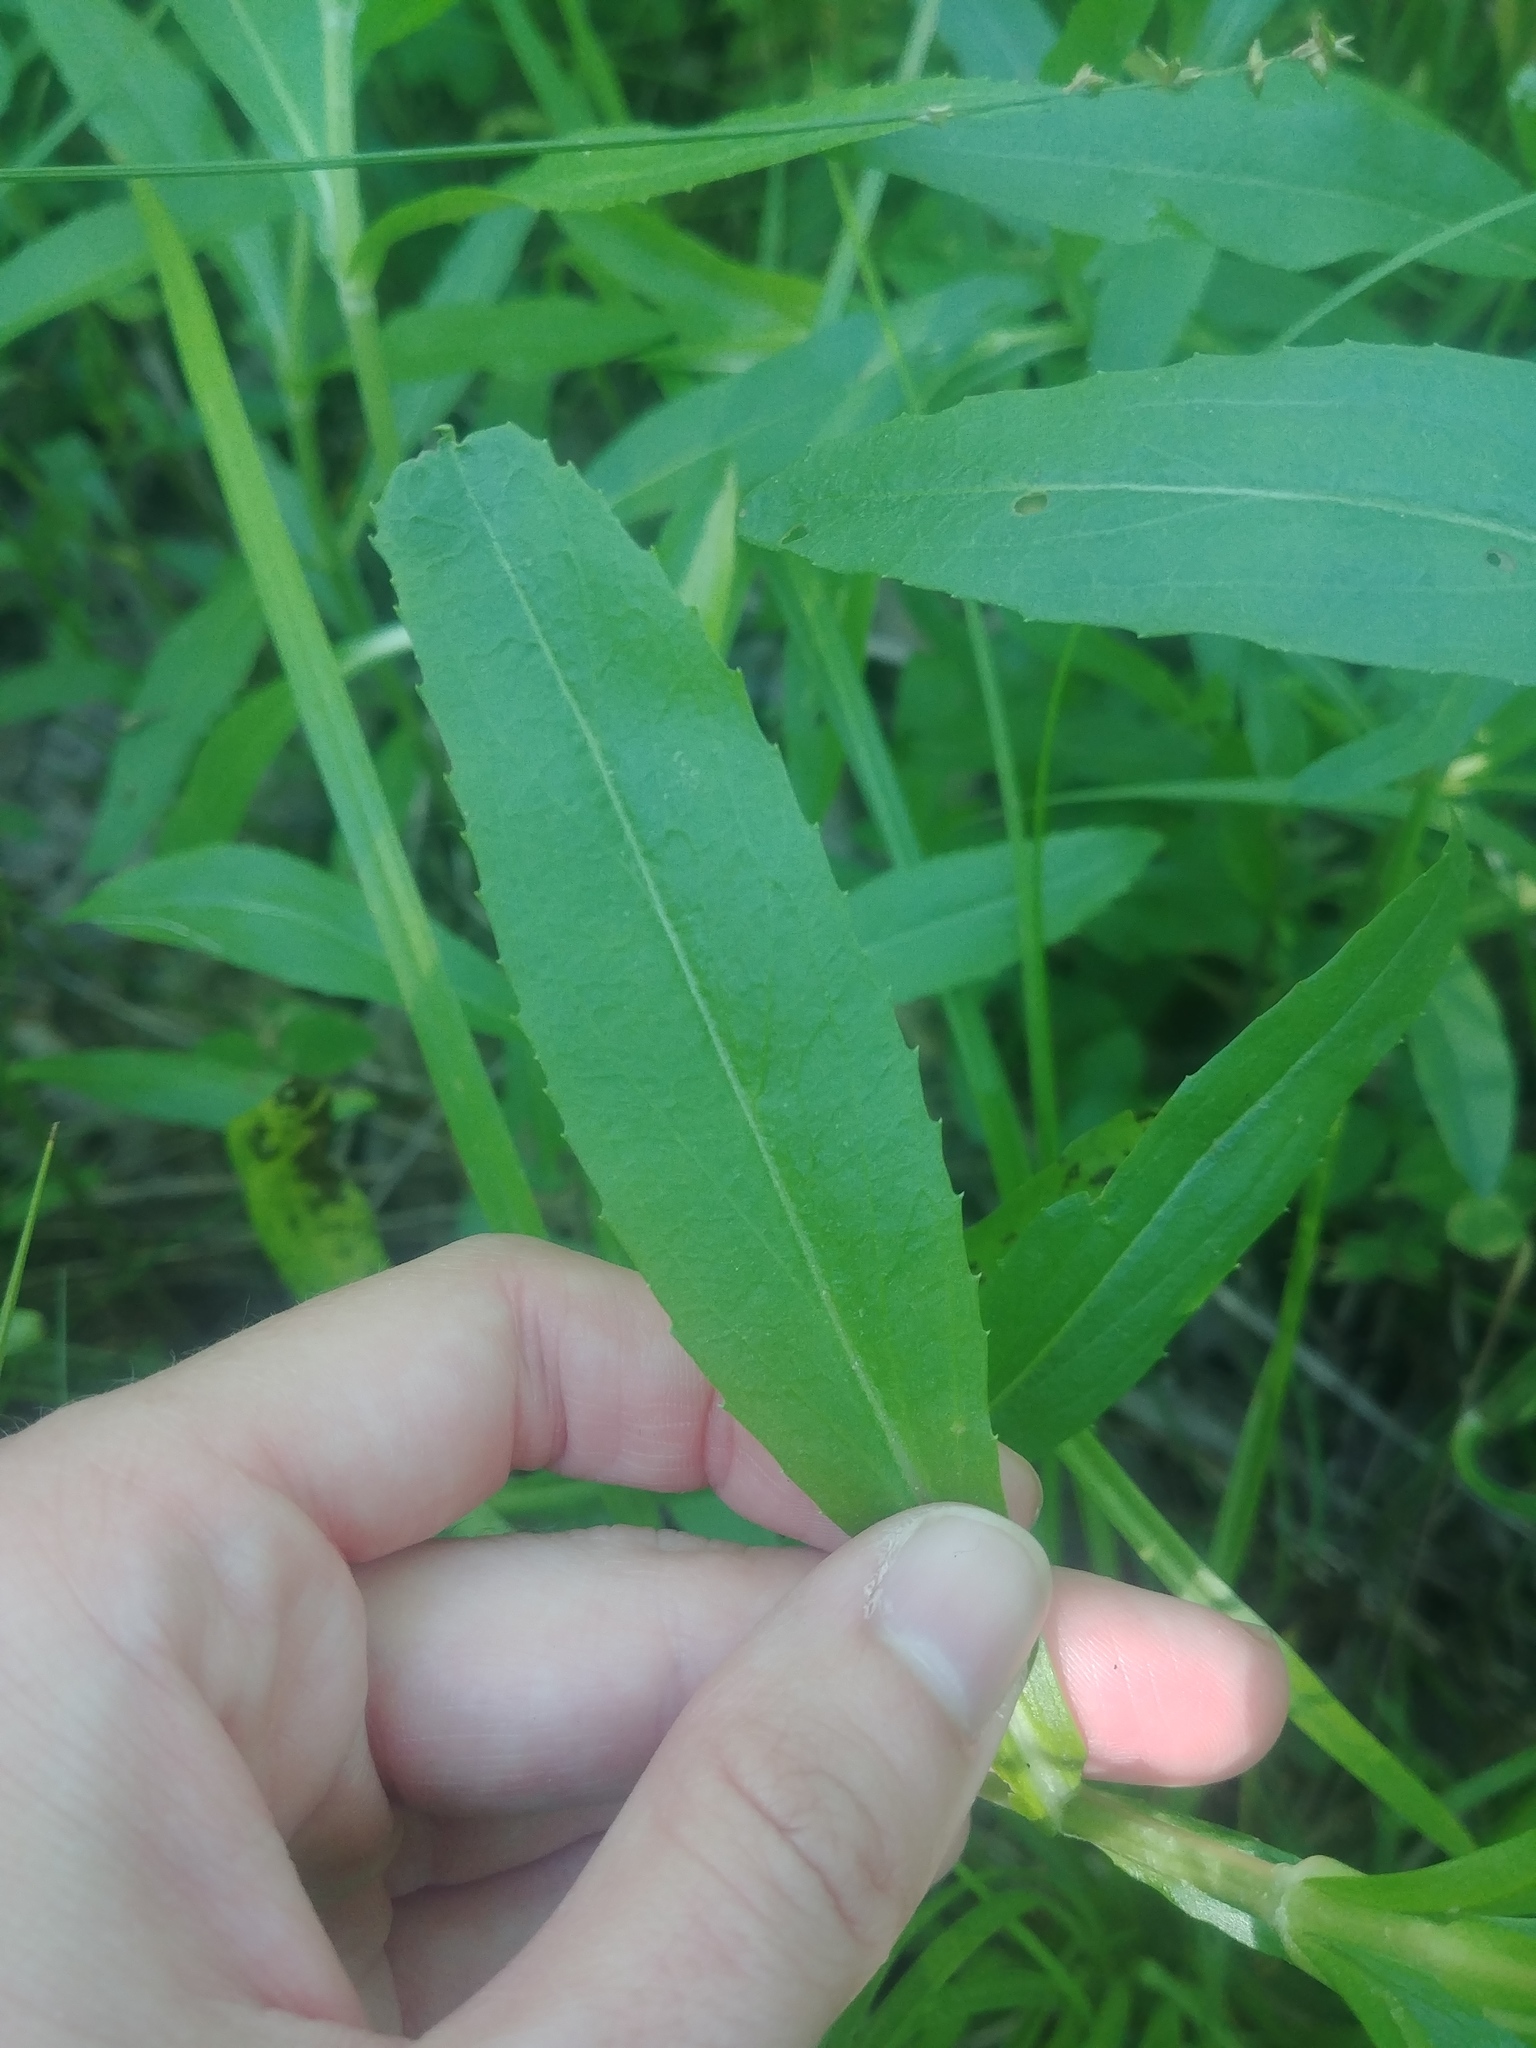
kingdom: Plantae
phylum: Tracheophyta
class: Magnoliopsida
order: Lamiales
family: Lamiaceae
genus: Physostegia
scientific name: Physostegia virginiana
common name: Obedient-plant
